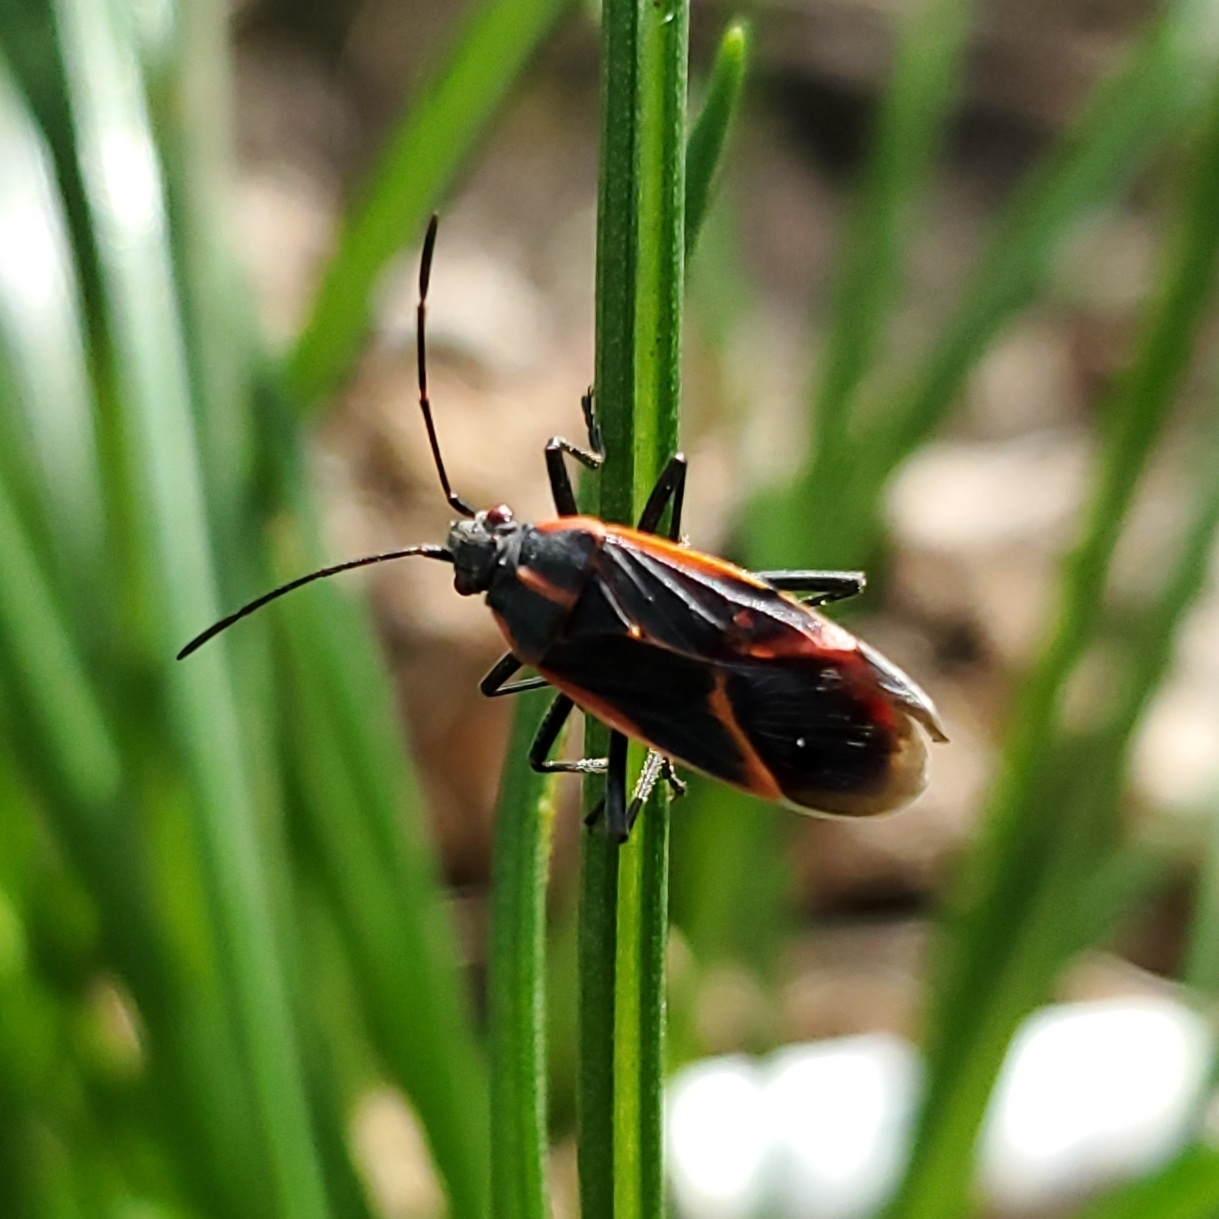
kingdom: Animalia
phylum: Arthropoda
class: Insecta
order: Hemiptera
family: Rhopalidae
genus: Boisea
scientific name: Boisea trivittata
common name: Boxelder bug
